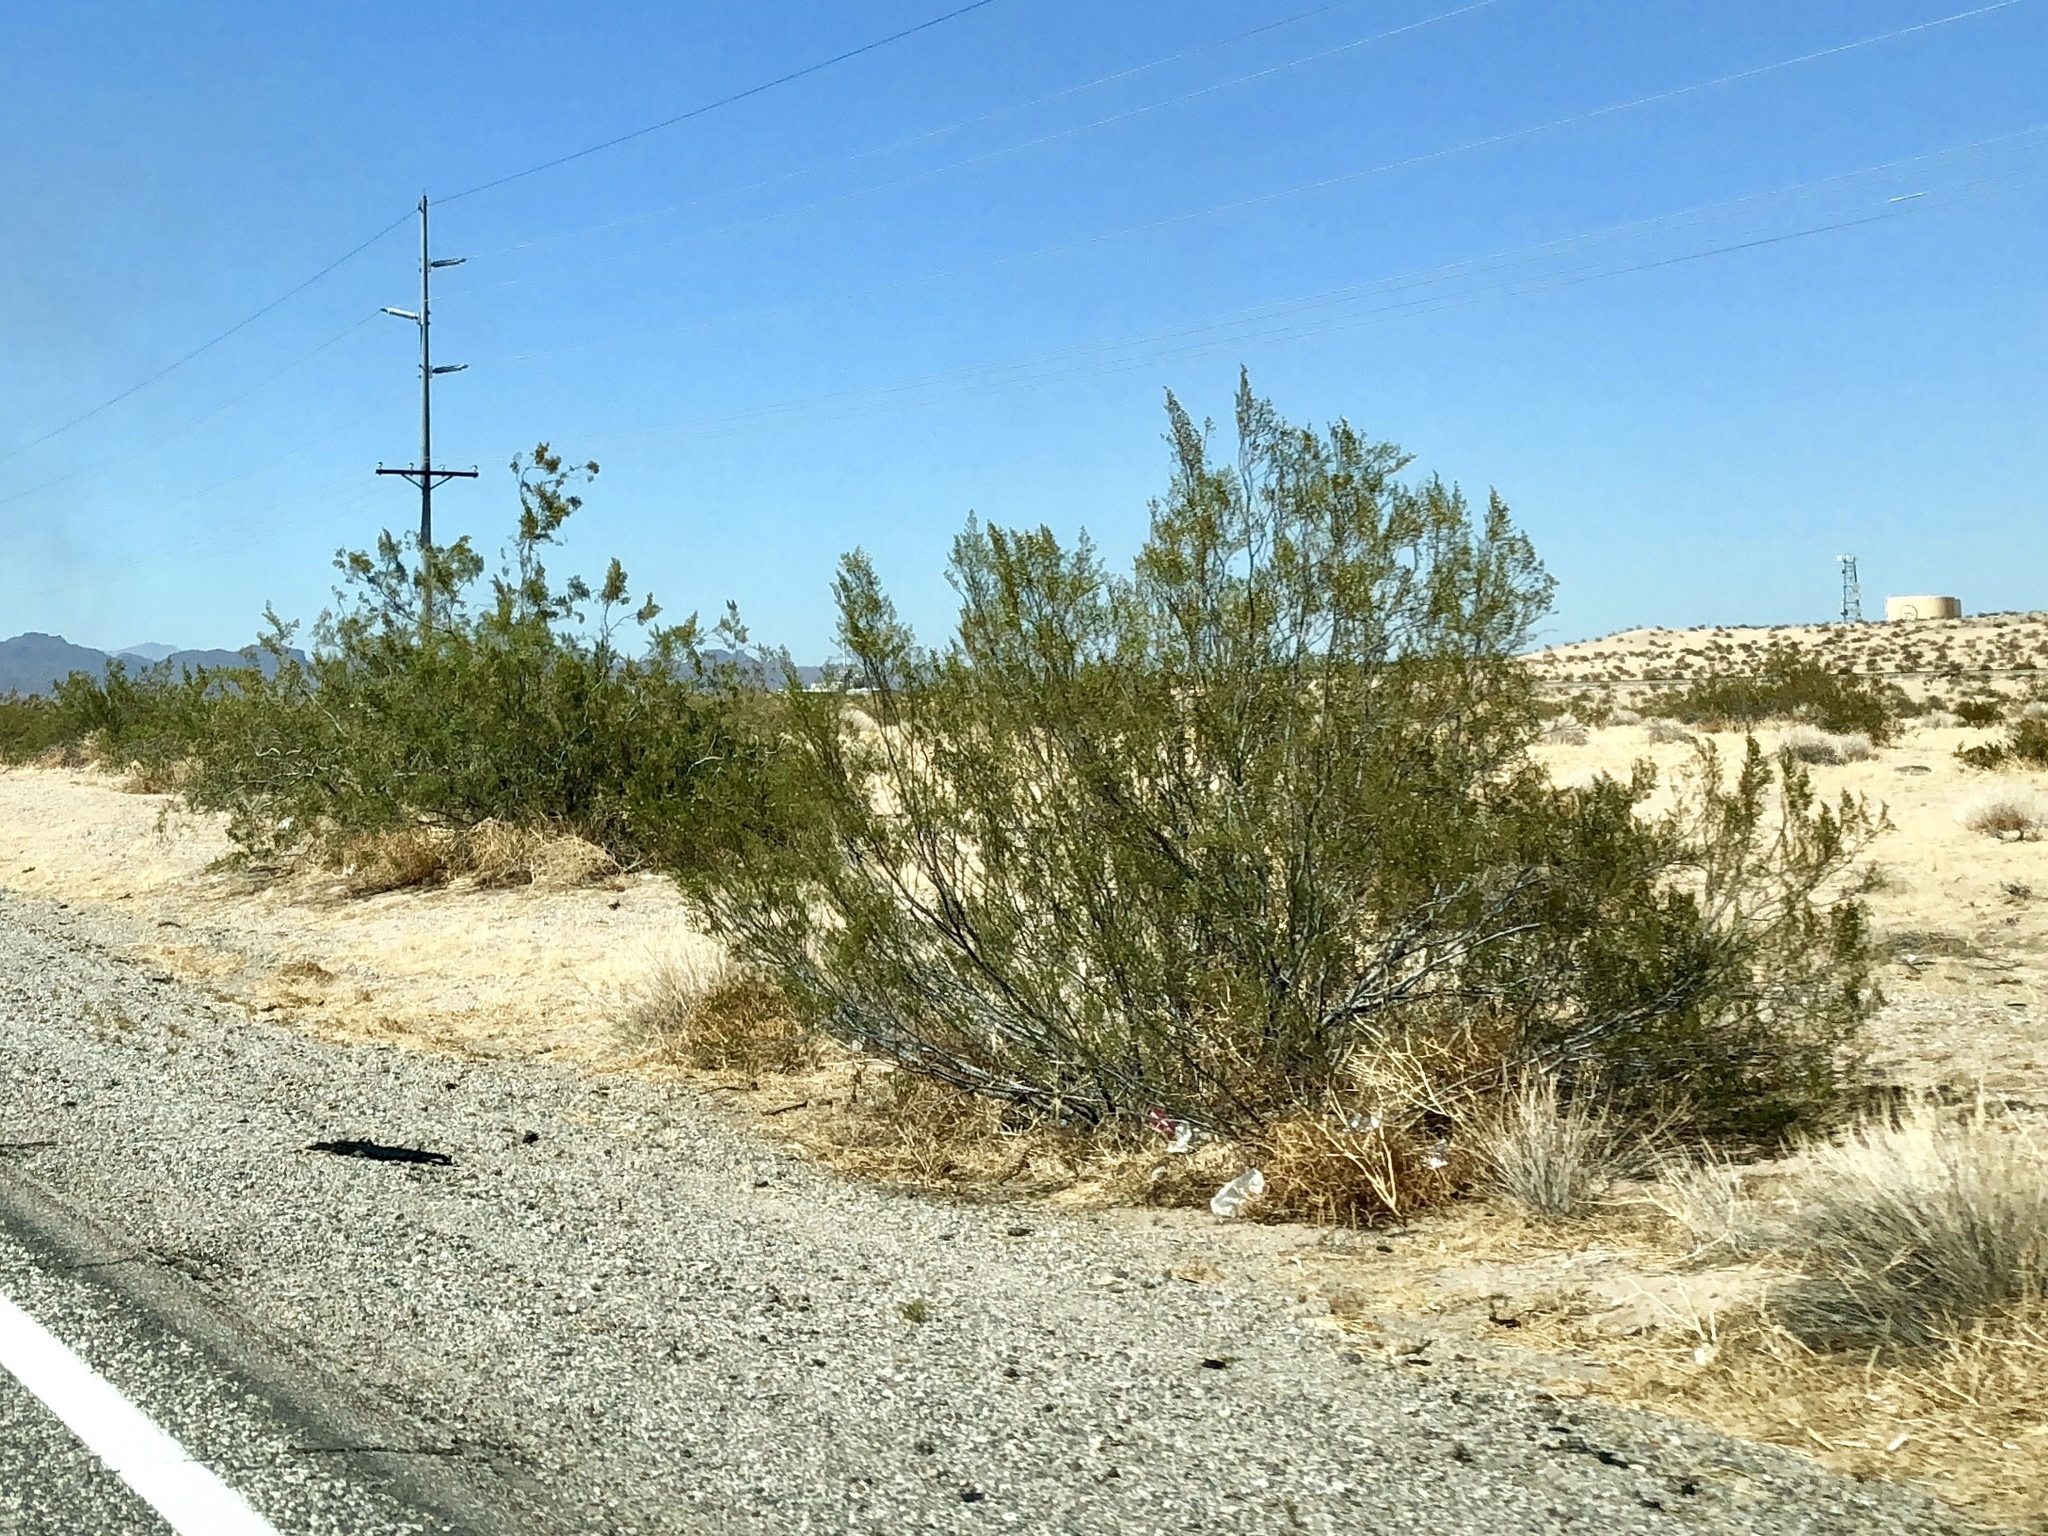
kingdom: Plantae
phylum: Tracheophyta
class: Magnoliopsida
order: Zygophyllales
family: Zygophyllaceae
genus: Larrea
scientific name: Larrea tridentata
